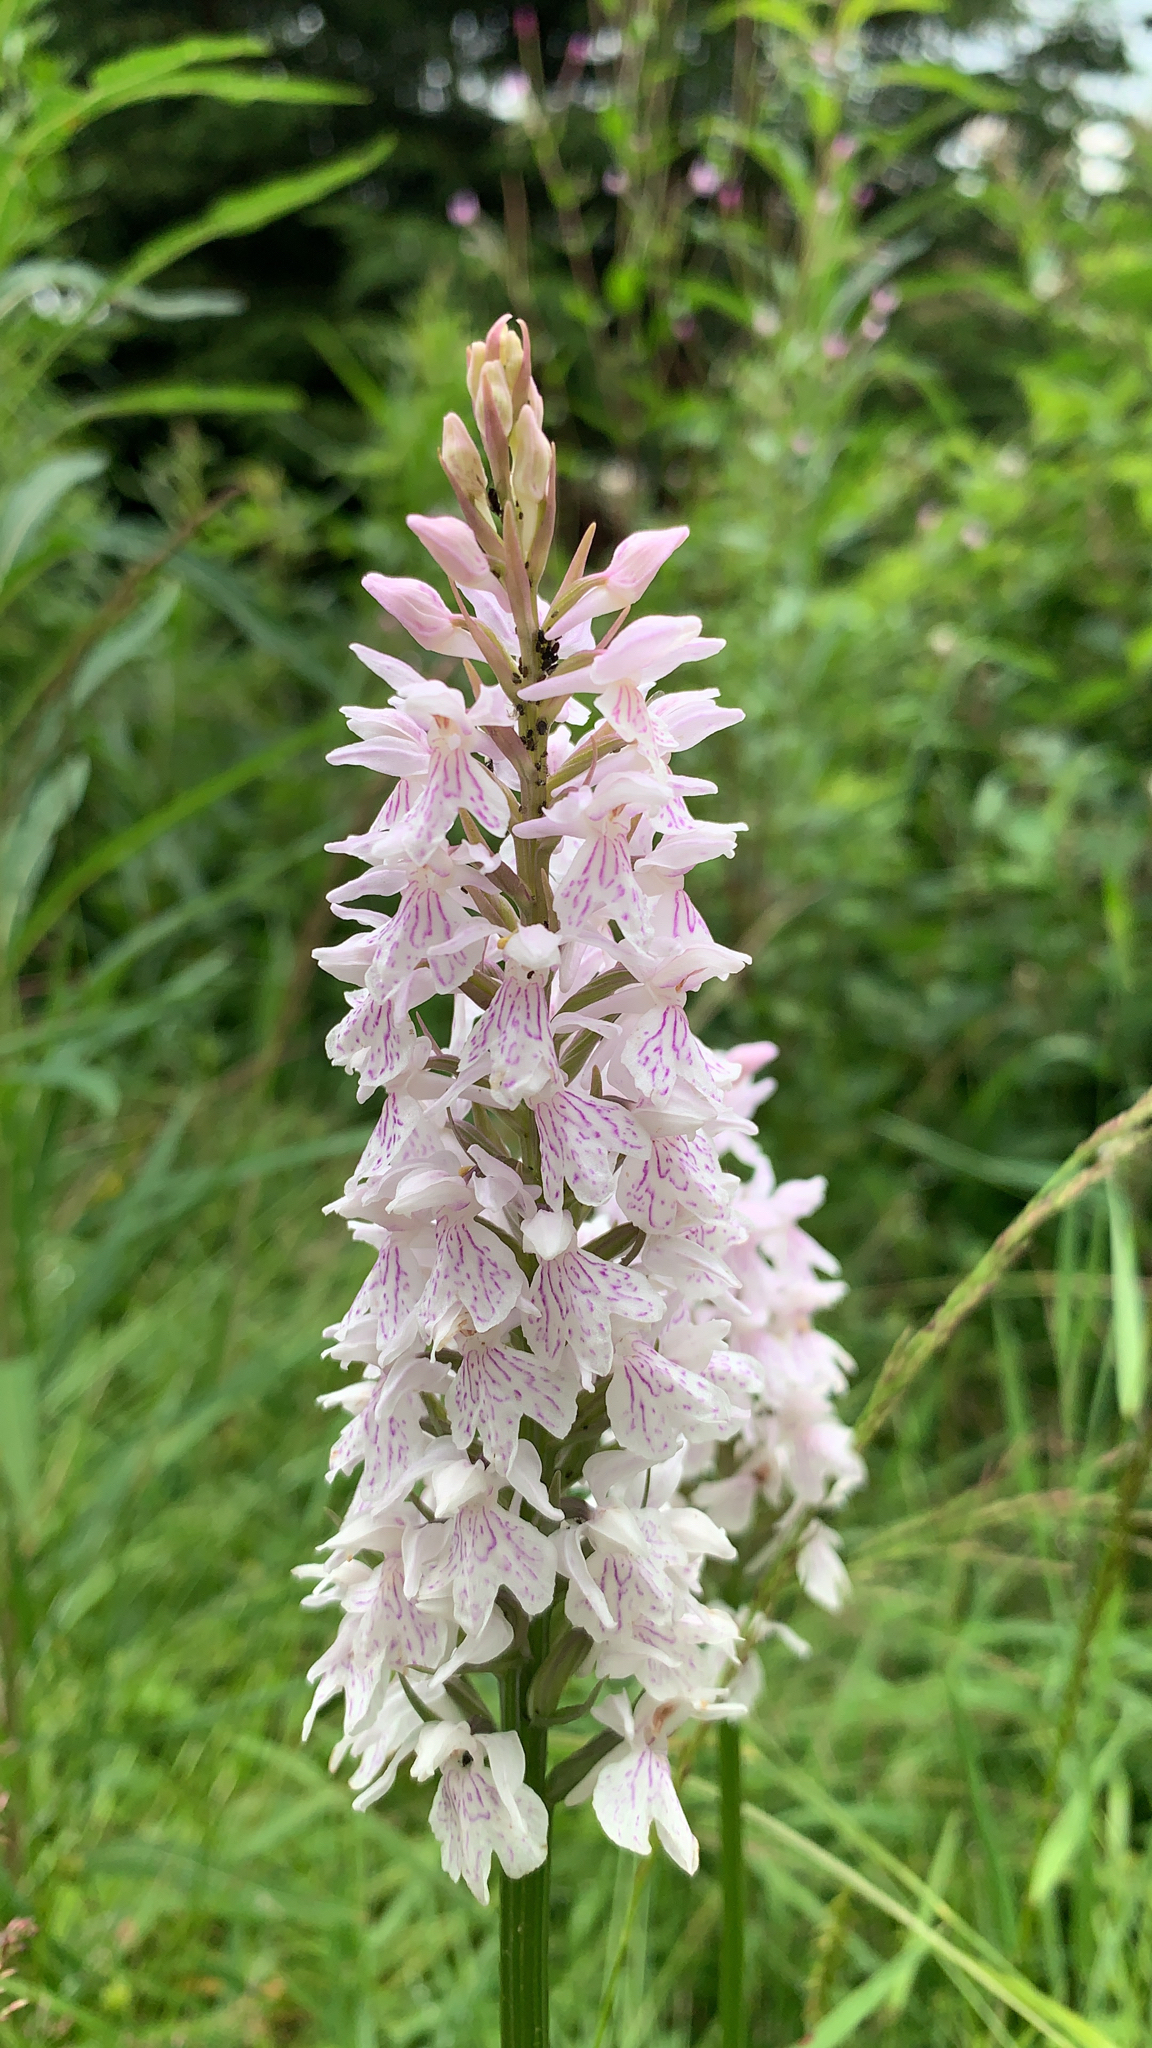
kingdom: Plantae
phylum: Tracheophyta
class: Liliopsida
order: Asparagales
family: Orchidaceae
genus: Dactylorhiza
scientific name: Dactylorhiza maculata
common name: Heath spotted-orchid
